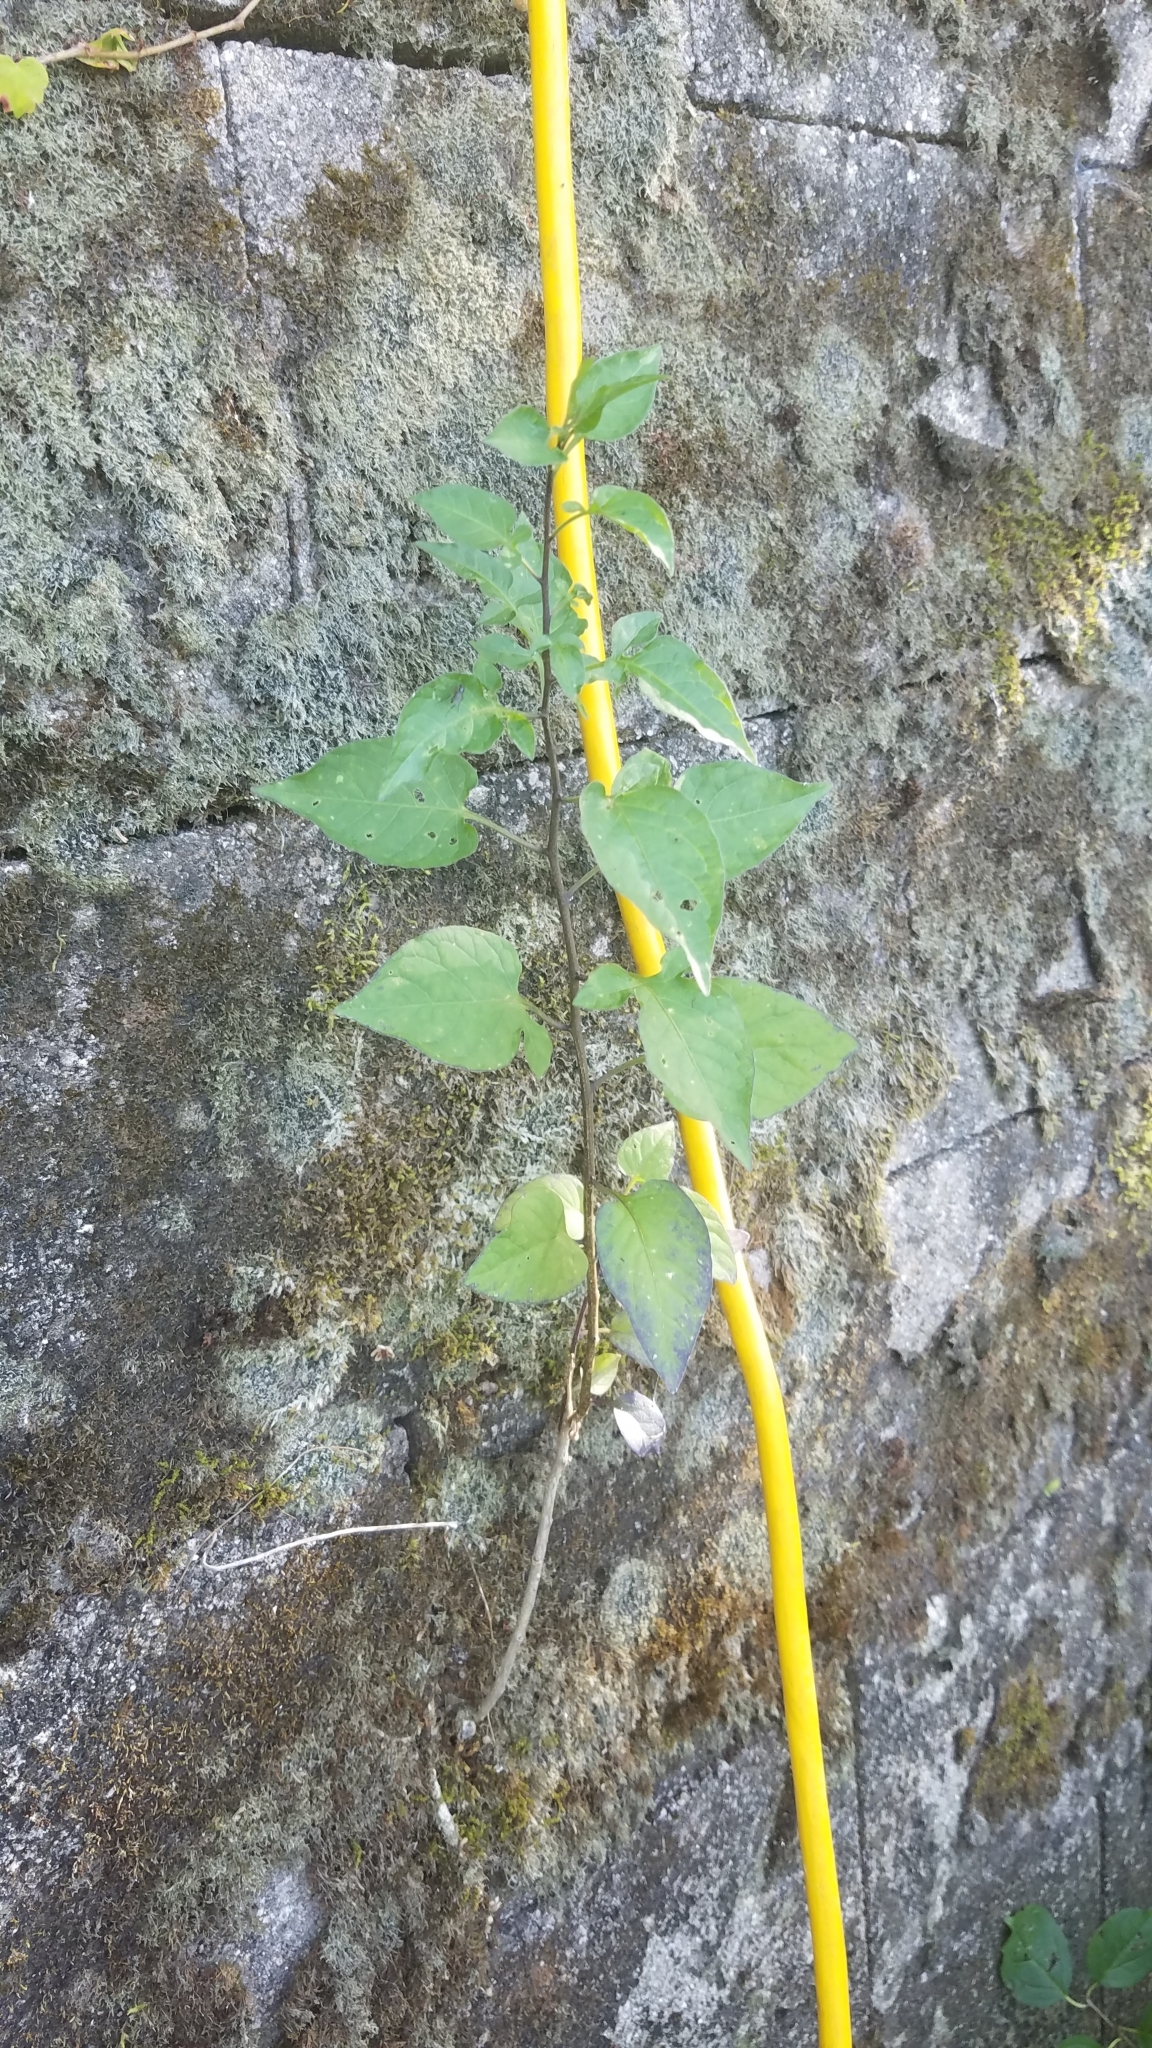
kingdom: Plantae
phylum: Tracheophyta
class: Magnoliopsida
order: Solanales
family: Solanaceae
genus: Solanum
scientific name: Solanum dulcamara
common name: Climbing nightshade
